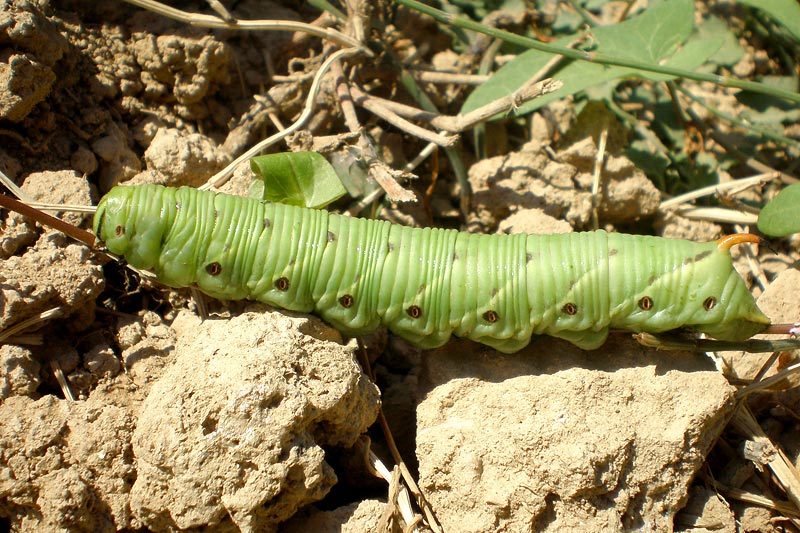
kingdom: Animalia
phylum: Arthropoda
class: Insecta
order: Lepidoptera
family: Sphingidae
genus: Agrius
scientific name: Agrius convolvuli
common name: Convolvulus hawkmoth
